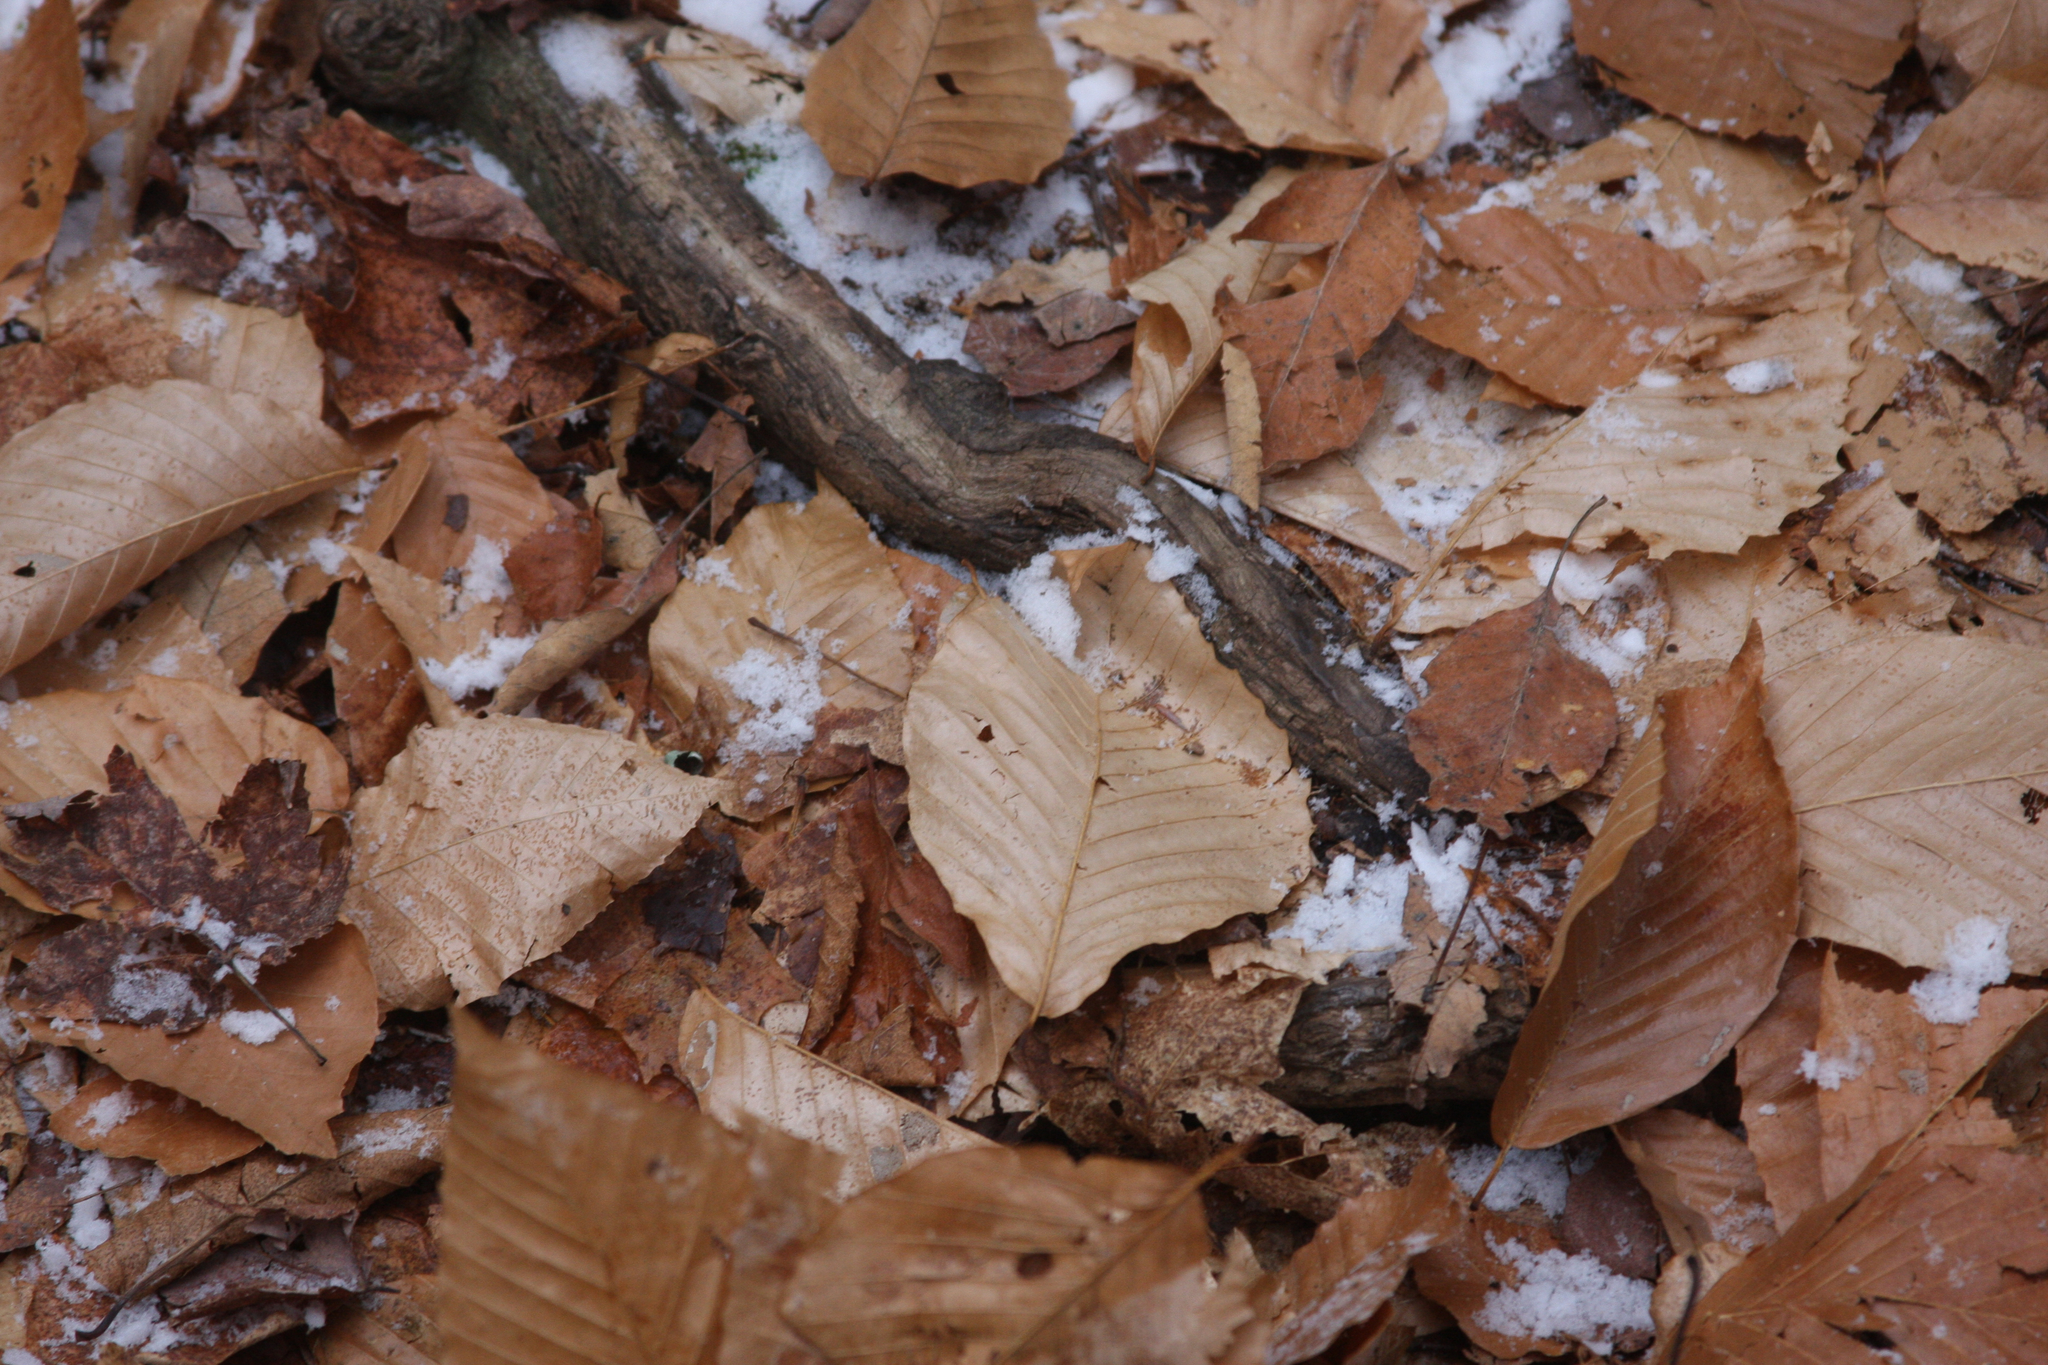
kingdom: Plantae
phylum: Tracheophyta
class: Magnoliopsida
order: Fagales
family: Fagaceae
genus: Fagus
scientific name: Fagus grandifolia
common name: American beech
